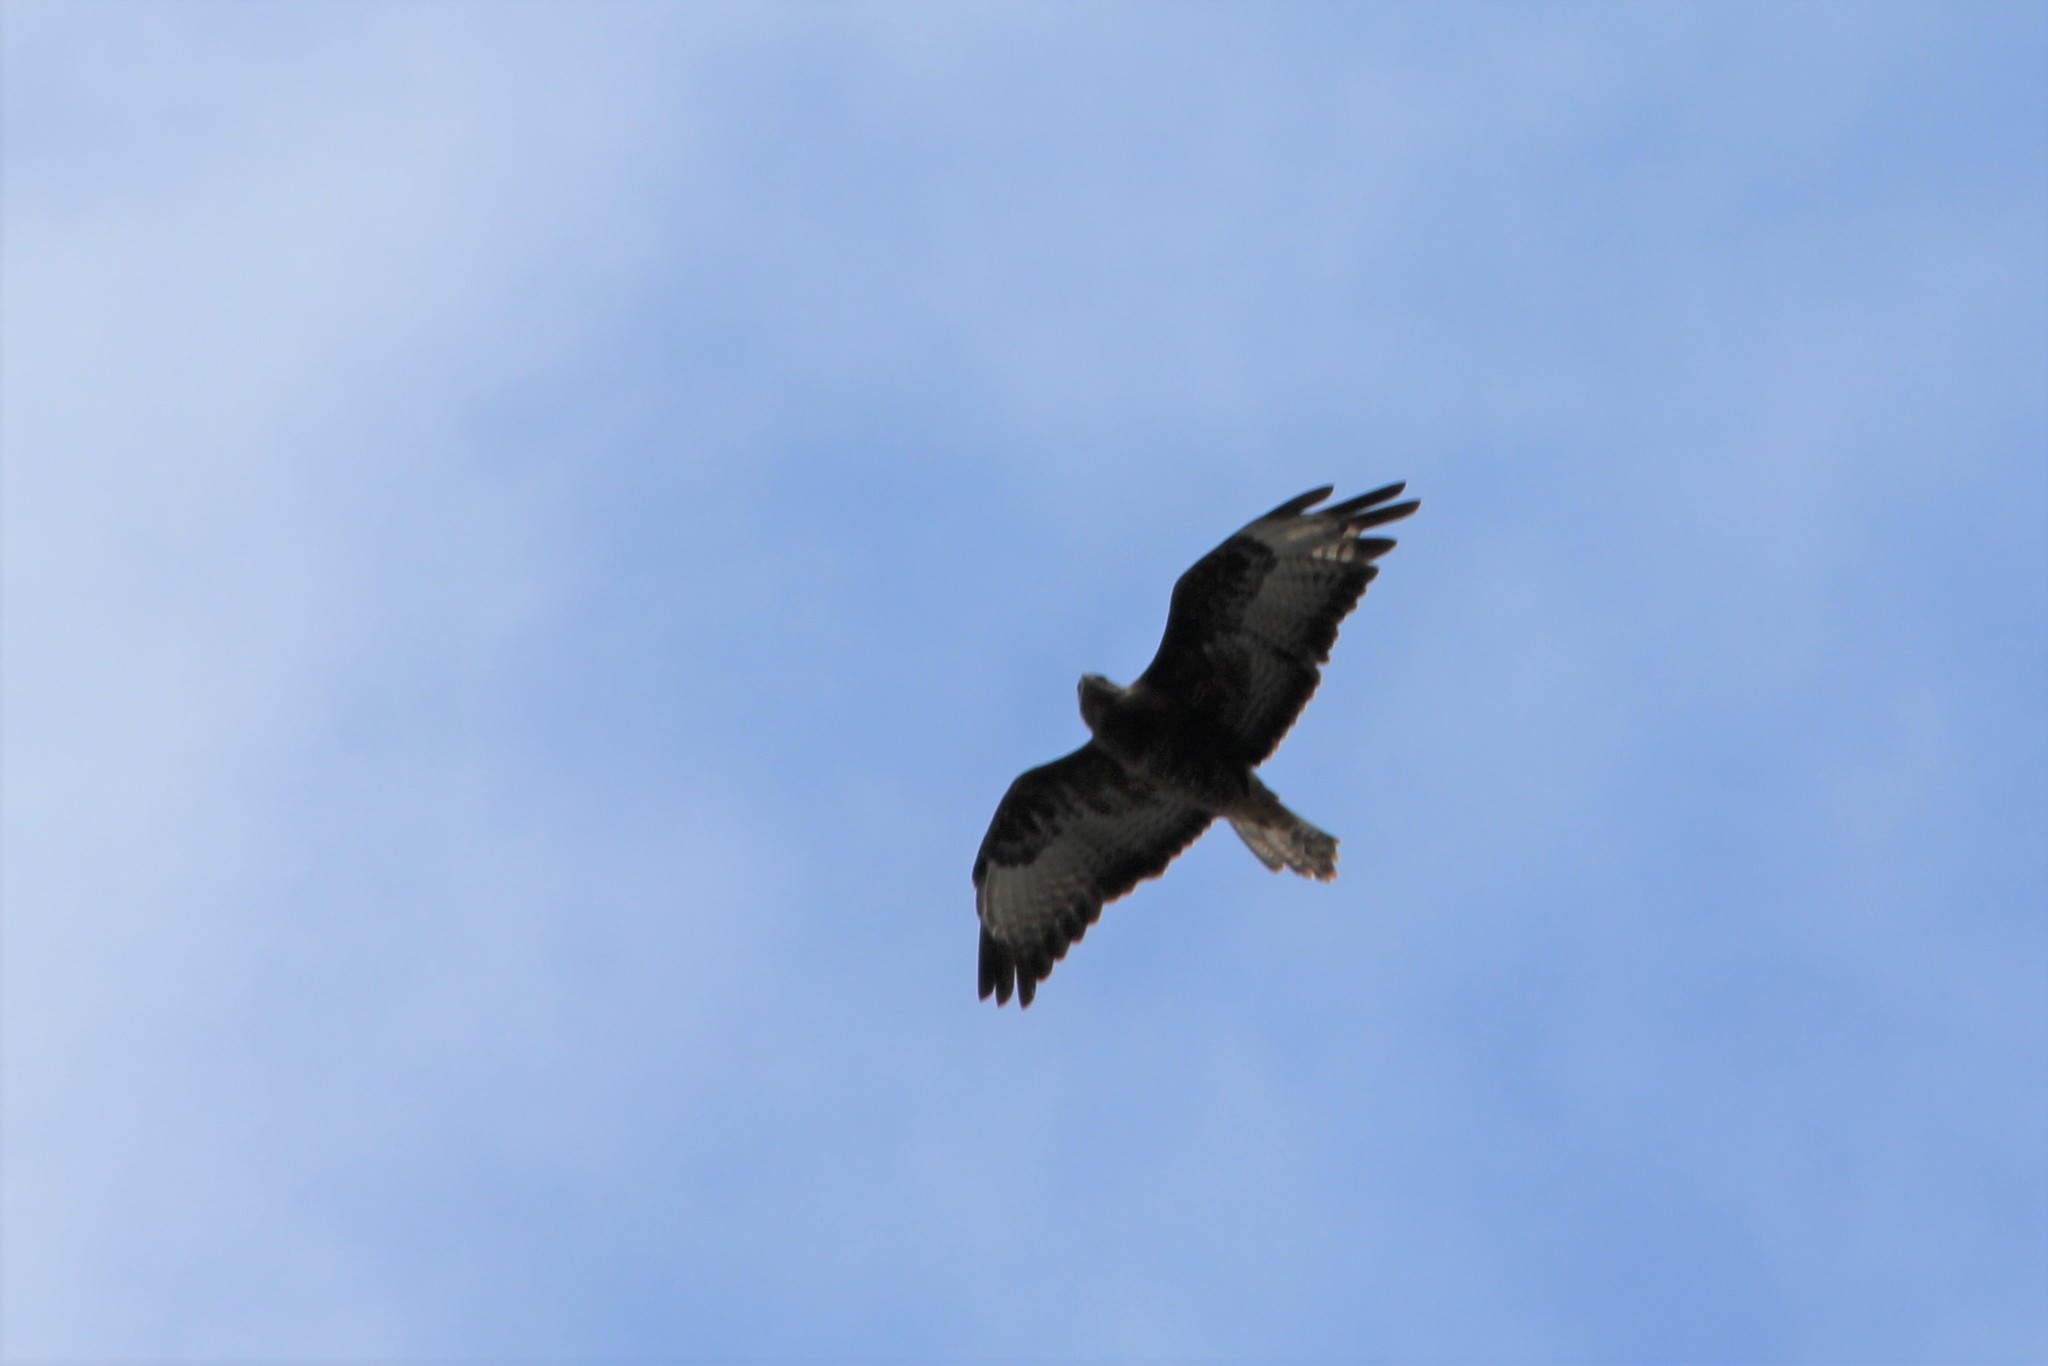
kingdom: Animalia
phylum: Chordata
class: Aves
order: Accipitriformes
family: Accipitridae
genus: Buteo
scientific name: Buteo buteo
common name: Common buzzard
